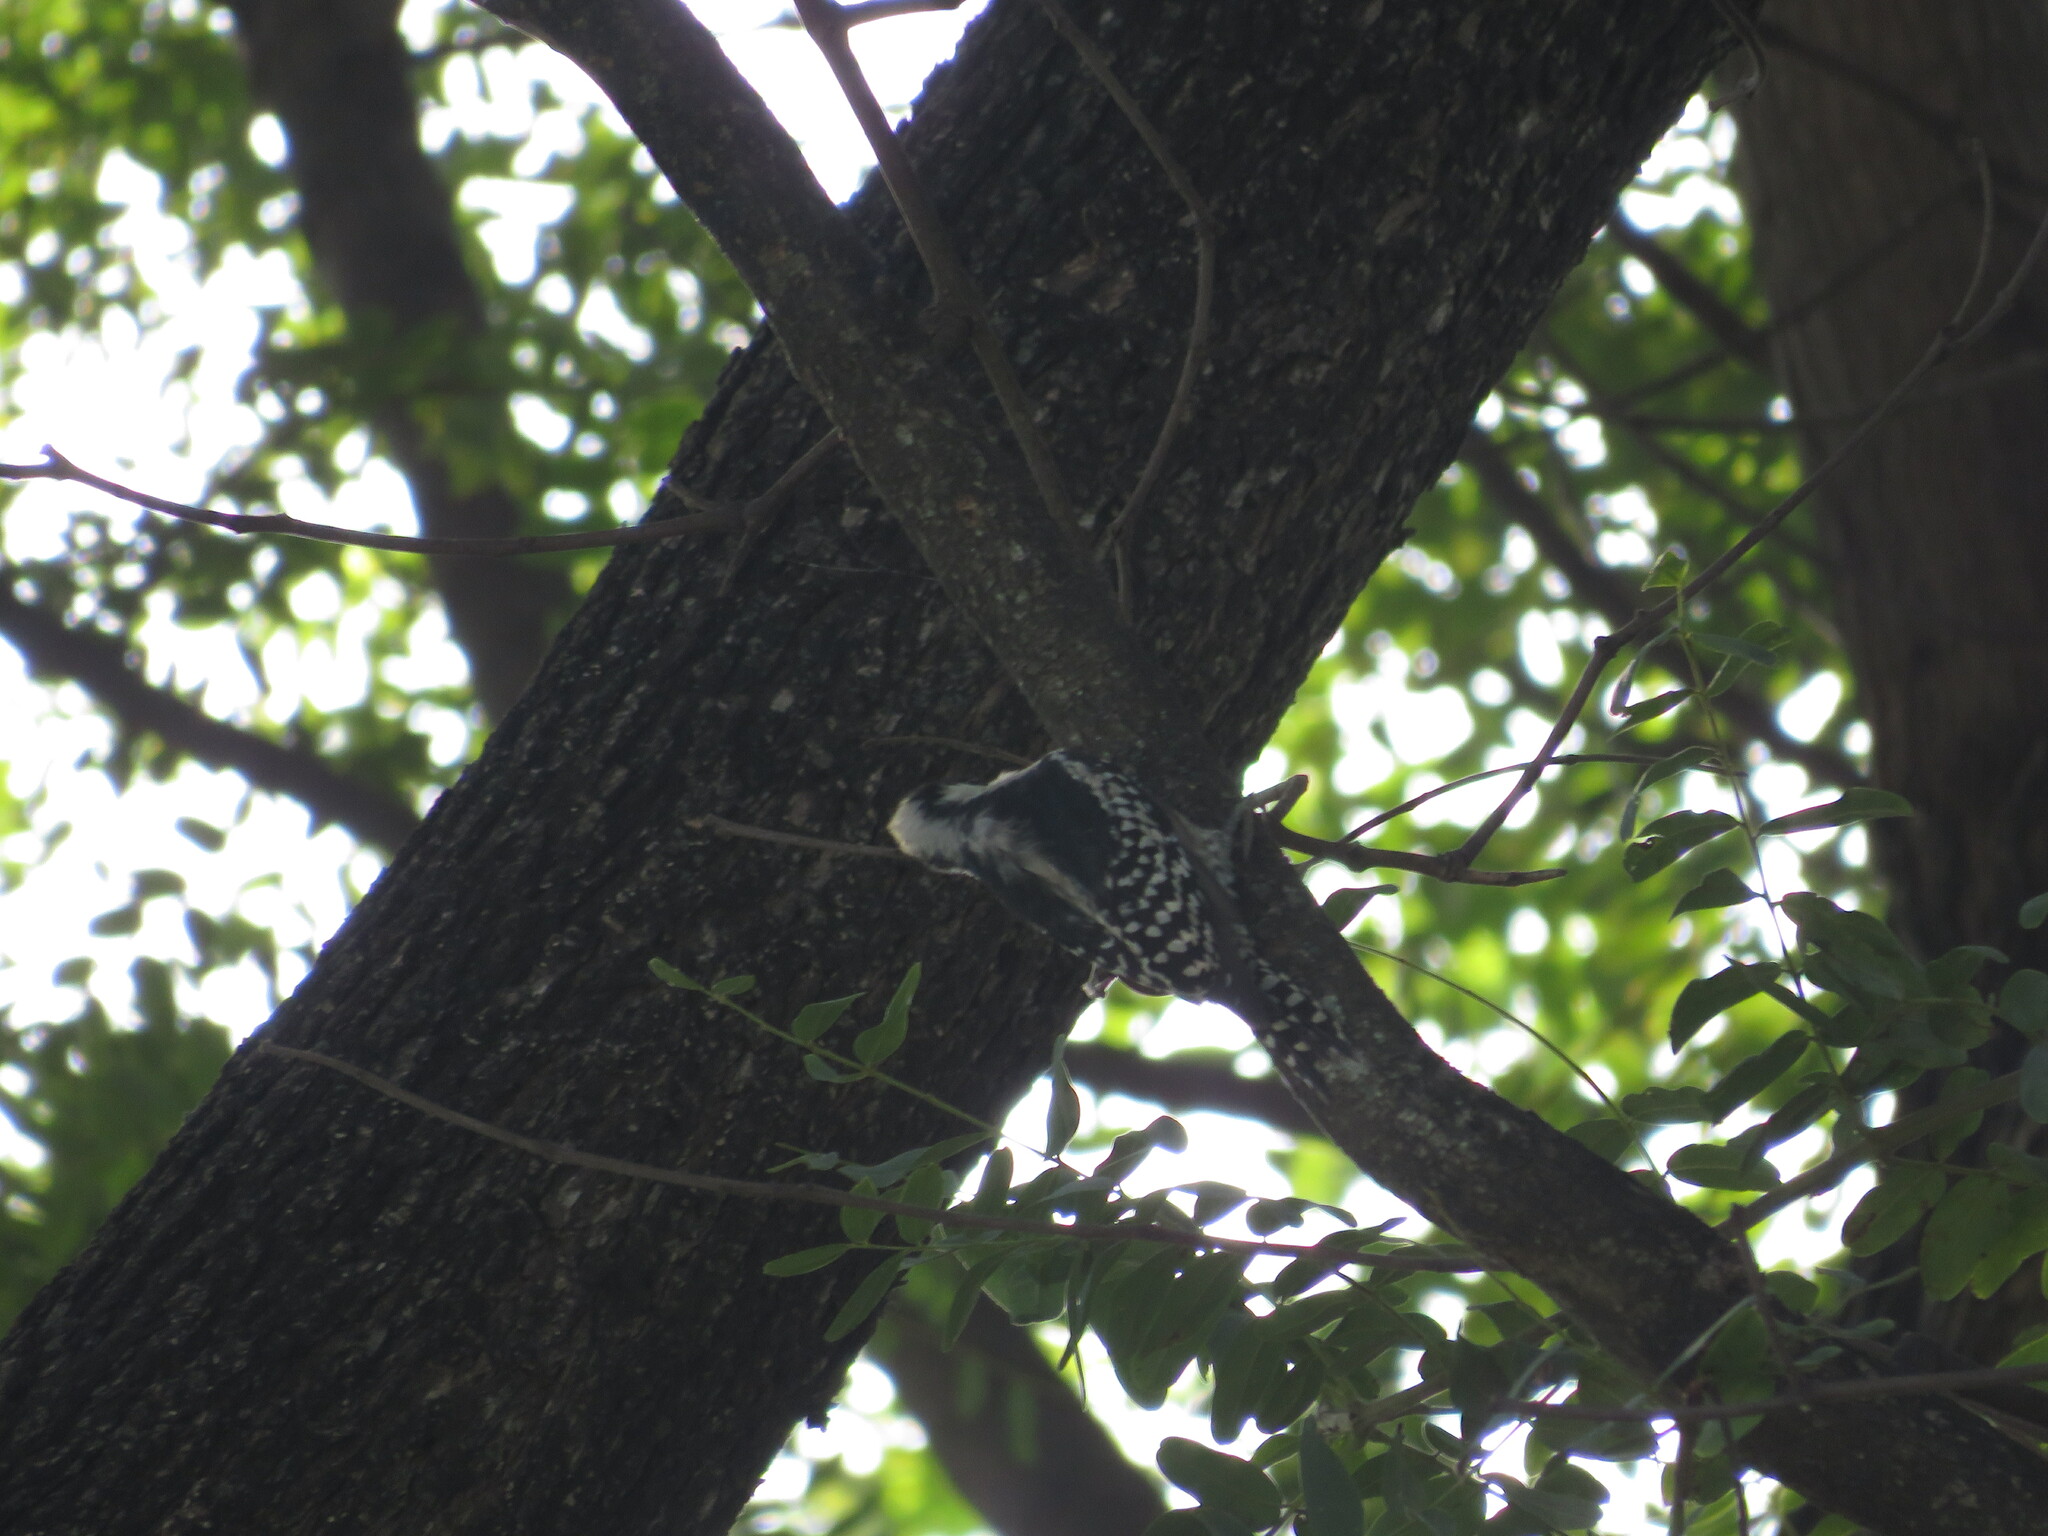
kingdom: Animalia
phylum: Chordata
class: Aves
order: Piciformes
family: Picidae
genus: Melanerpes
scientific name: Melanerpes cactorum
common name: White-fronted woodpecker
